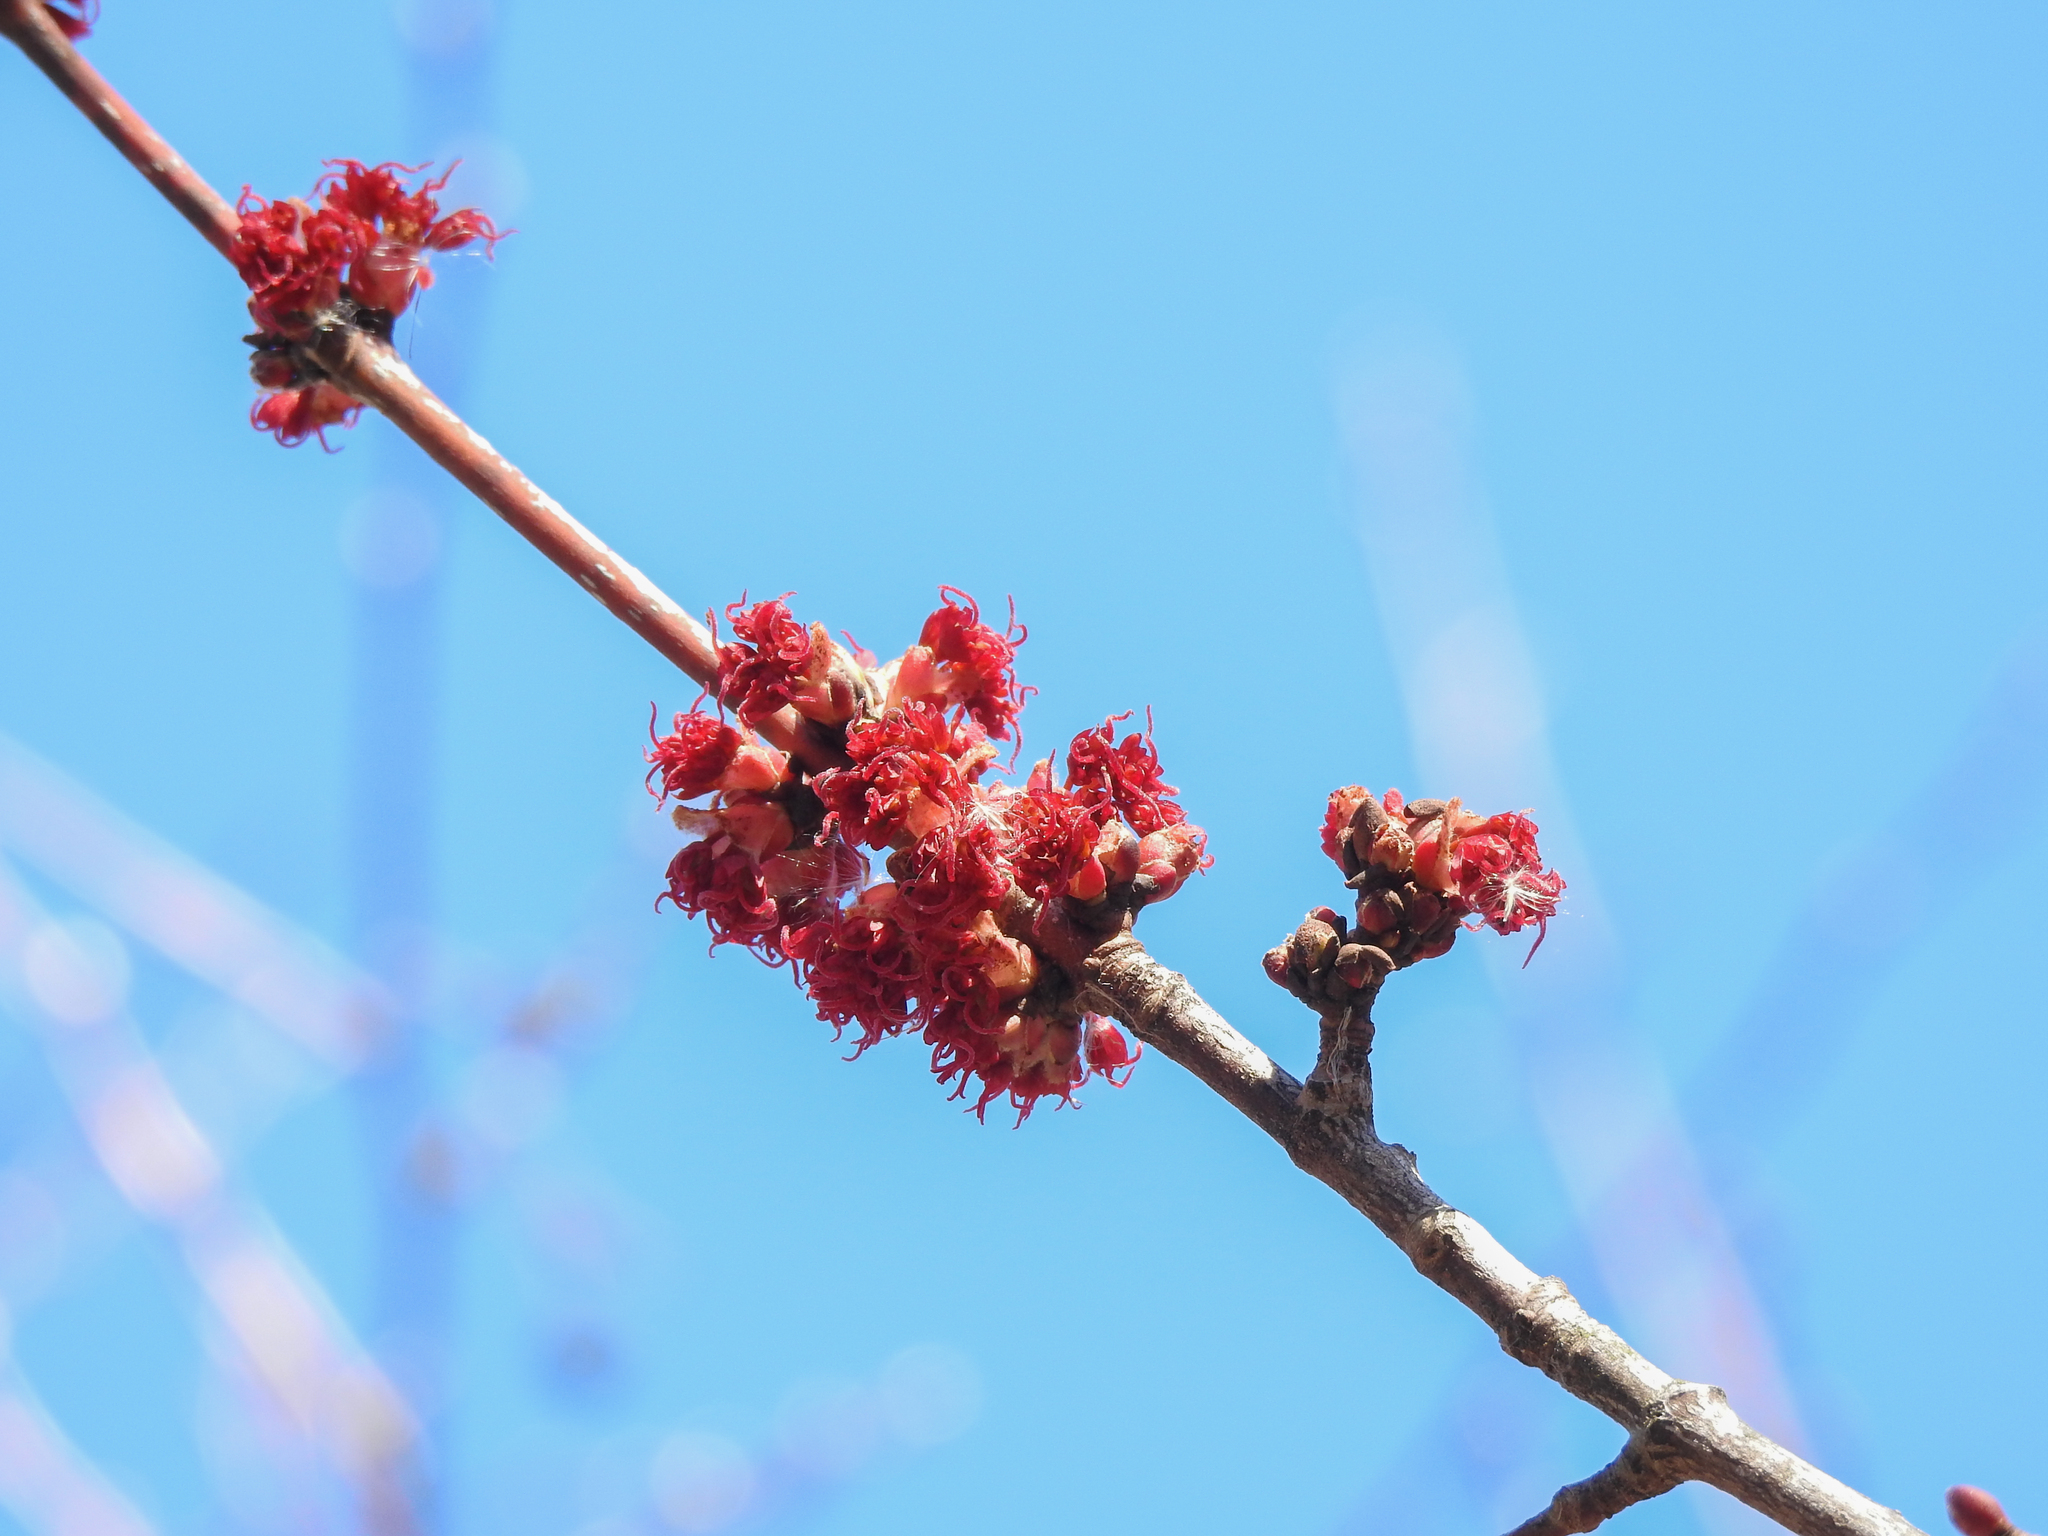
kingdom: Plantae
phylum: Tracheophyta
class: Magnoliopsida
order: Sapindales
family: Sapindaceae
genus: Acer
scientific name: Acer rubrum
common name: Red maple
